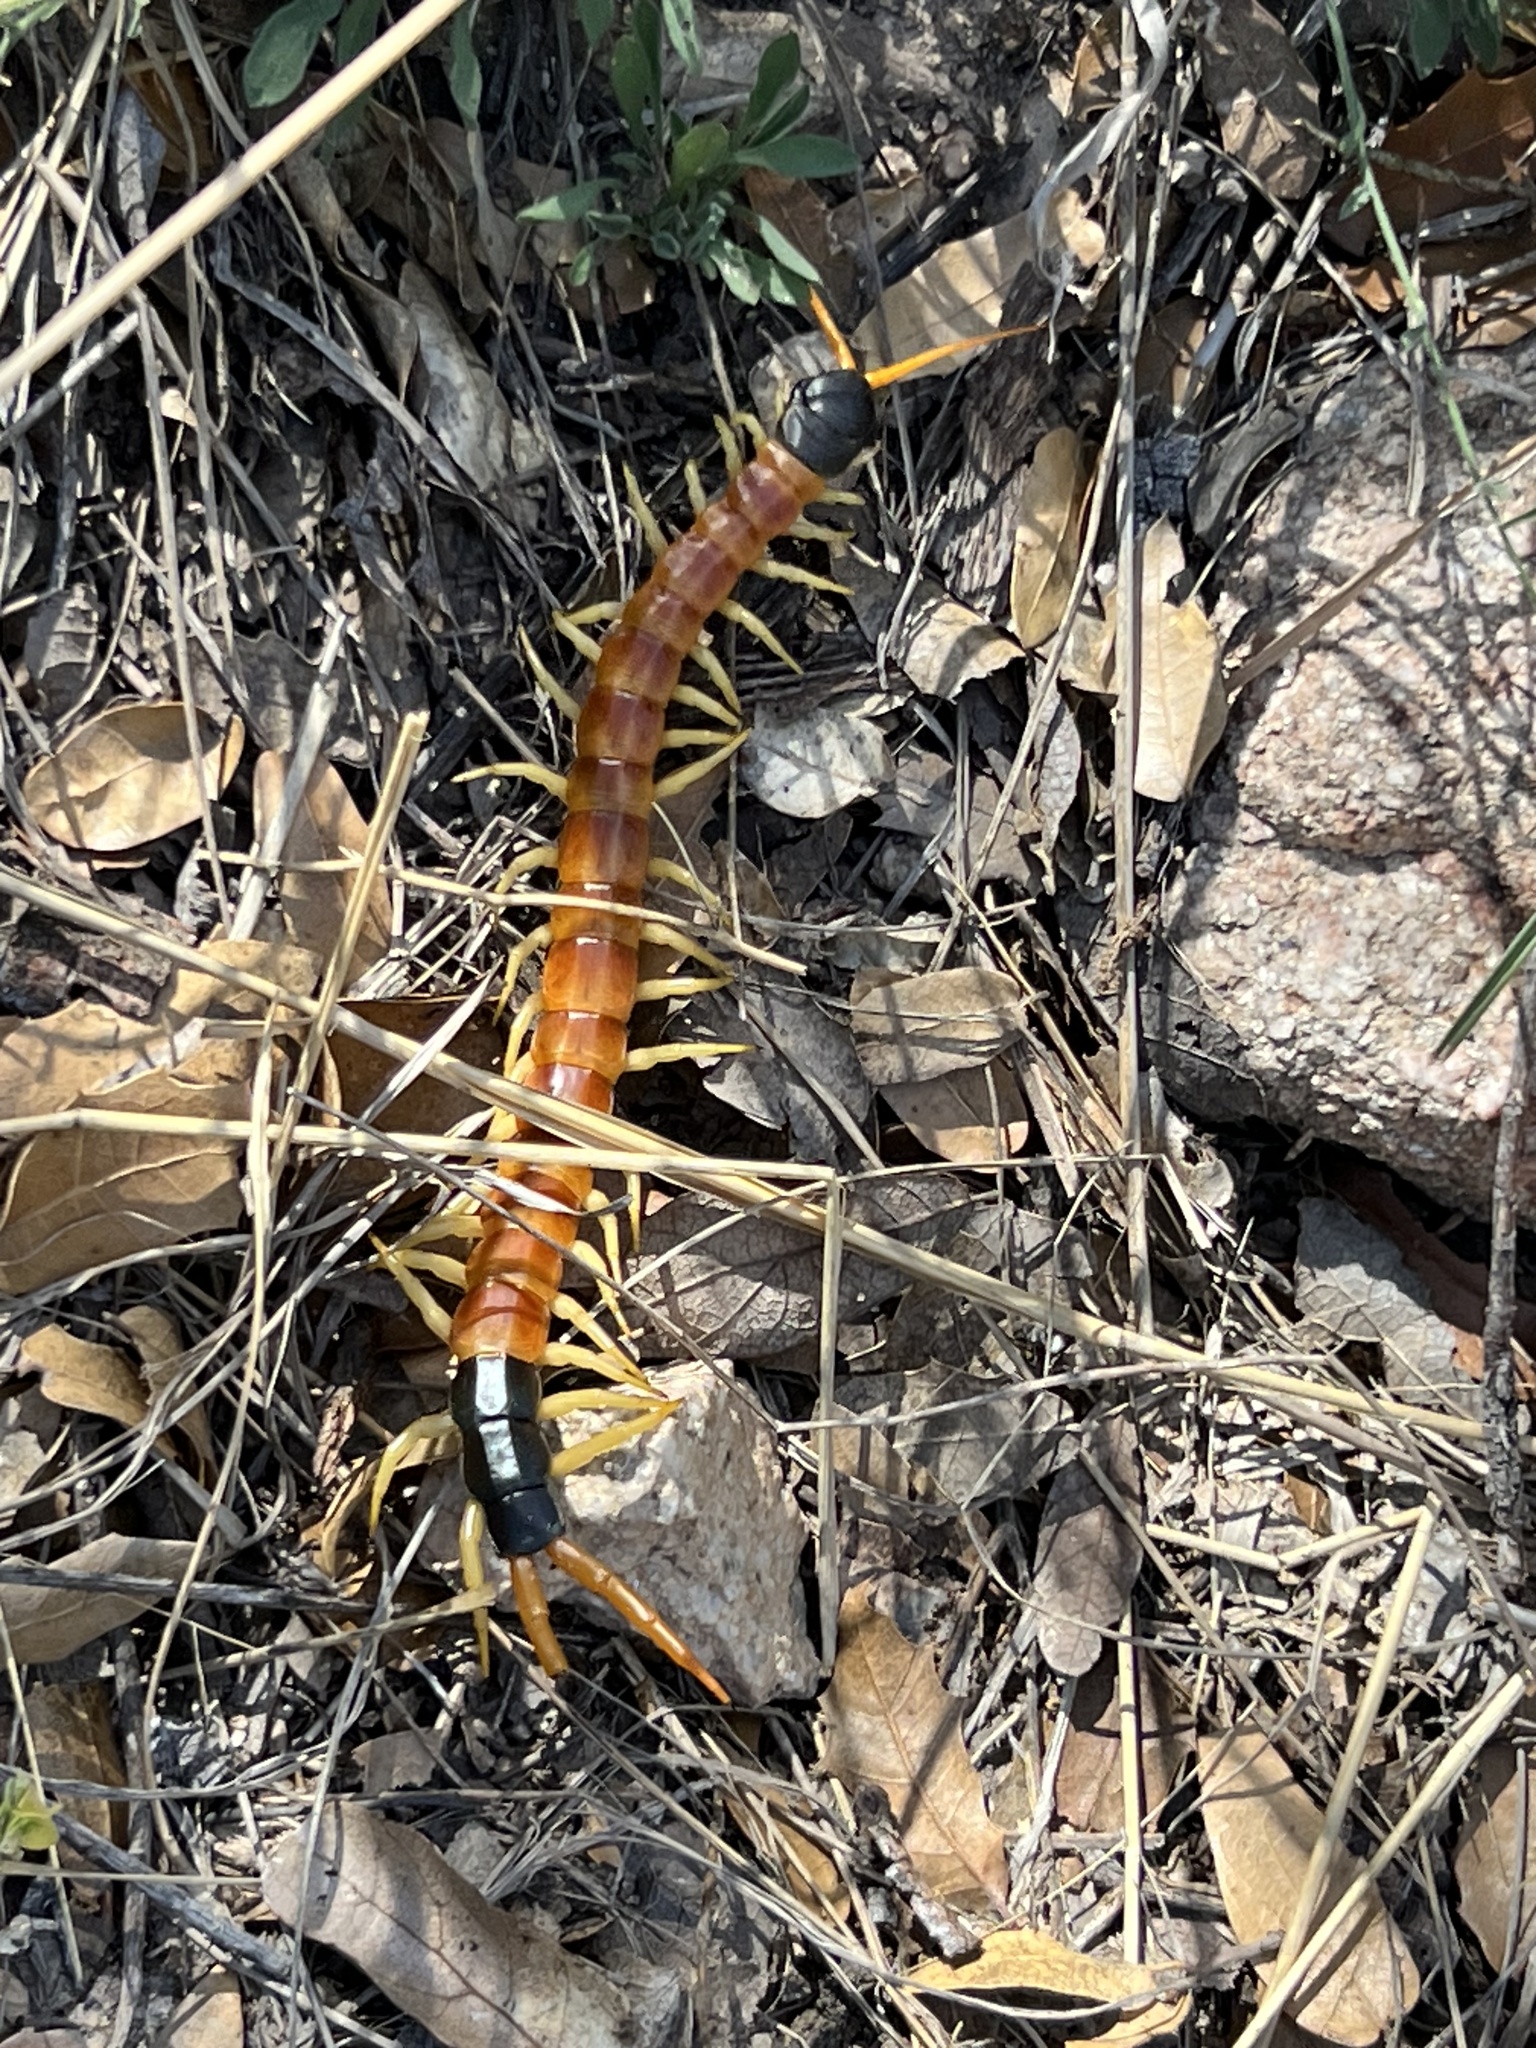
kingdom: Animalia
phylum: Arthropoda
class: Chilopoda
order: Scolopendromorpha
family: Scolopendridae
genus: Scolopendra
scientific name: Scolopendra heros
